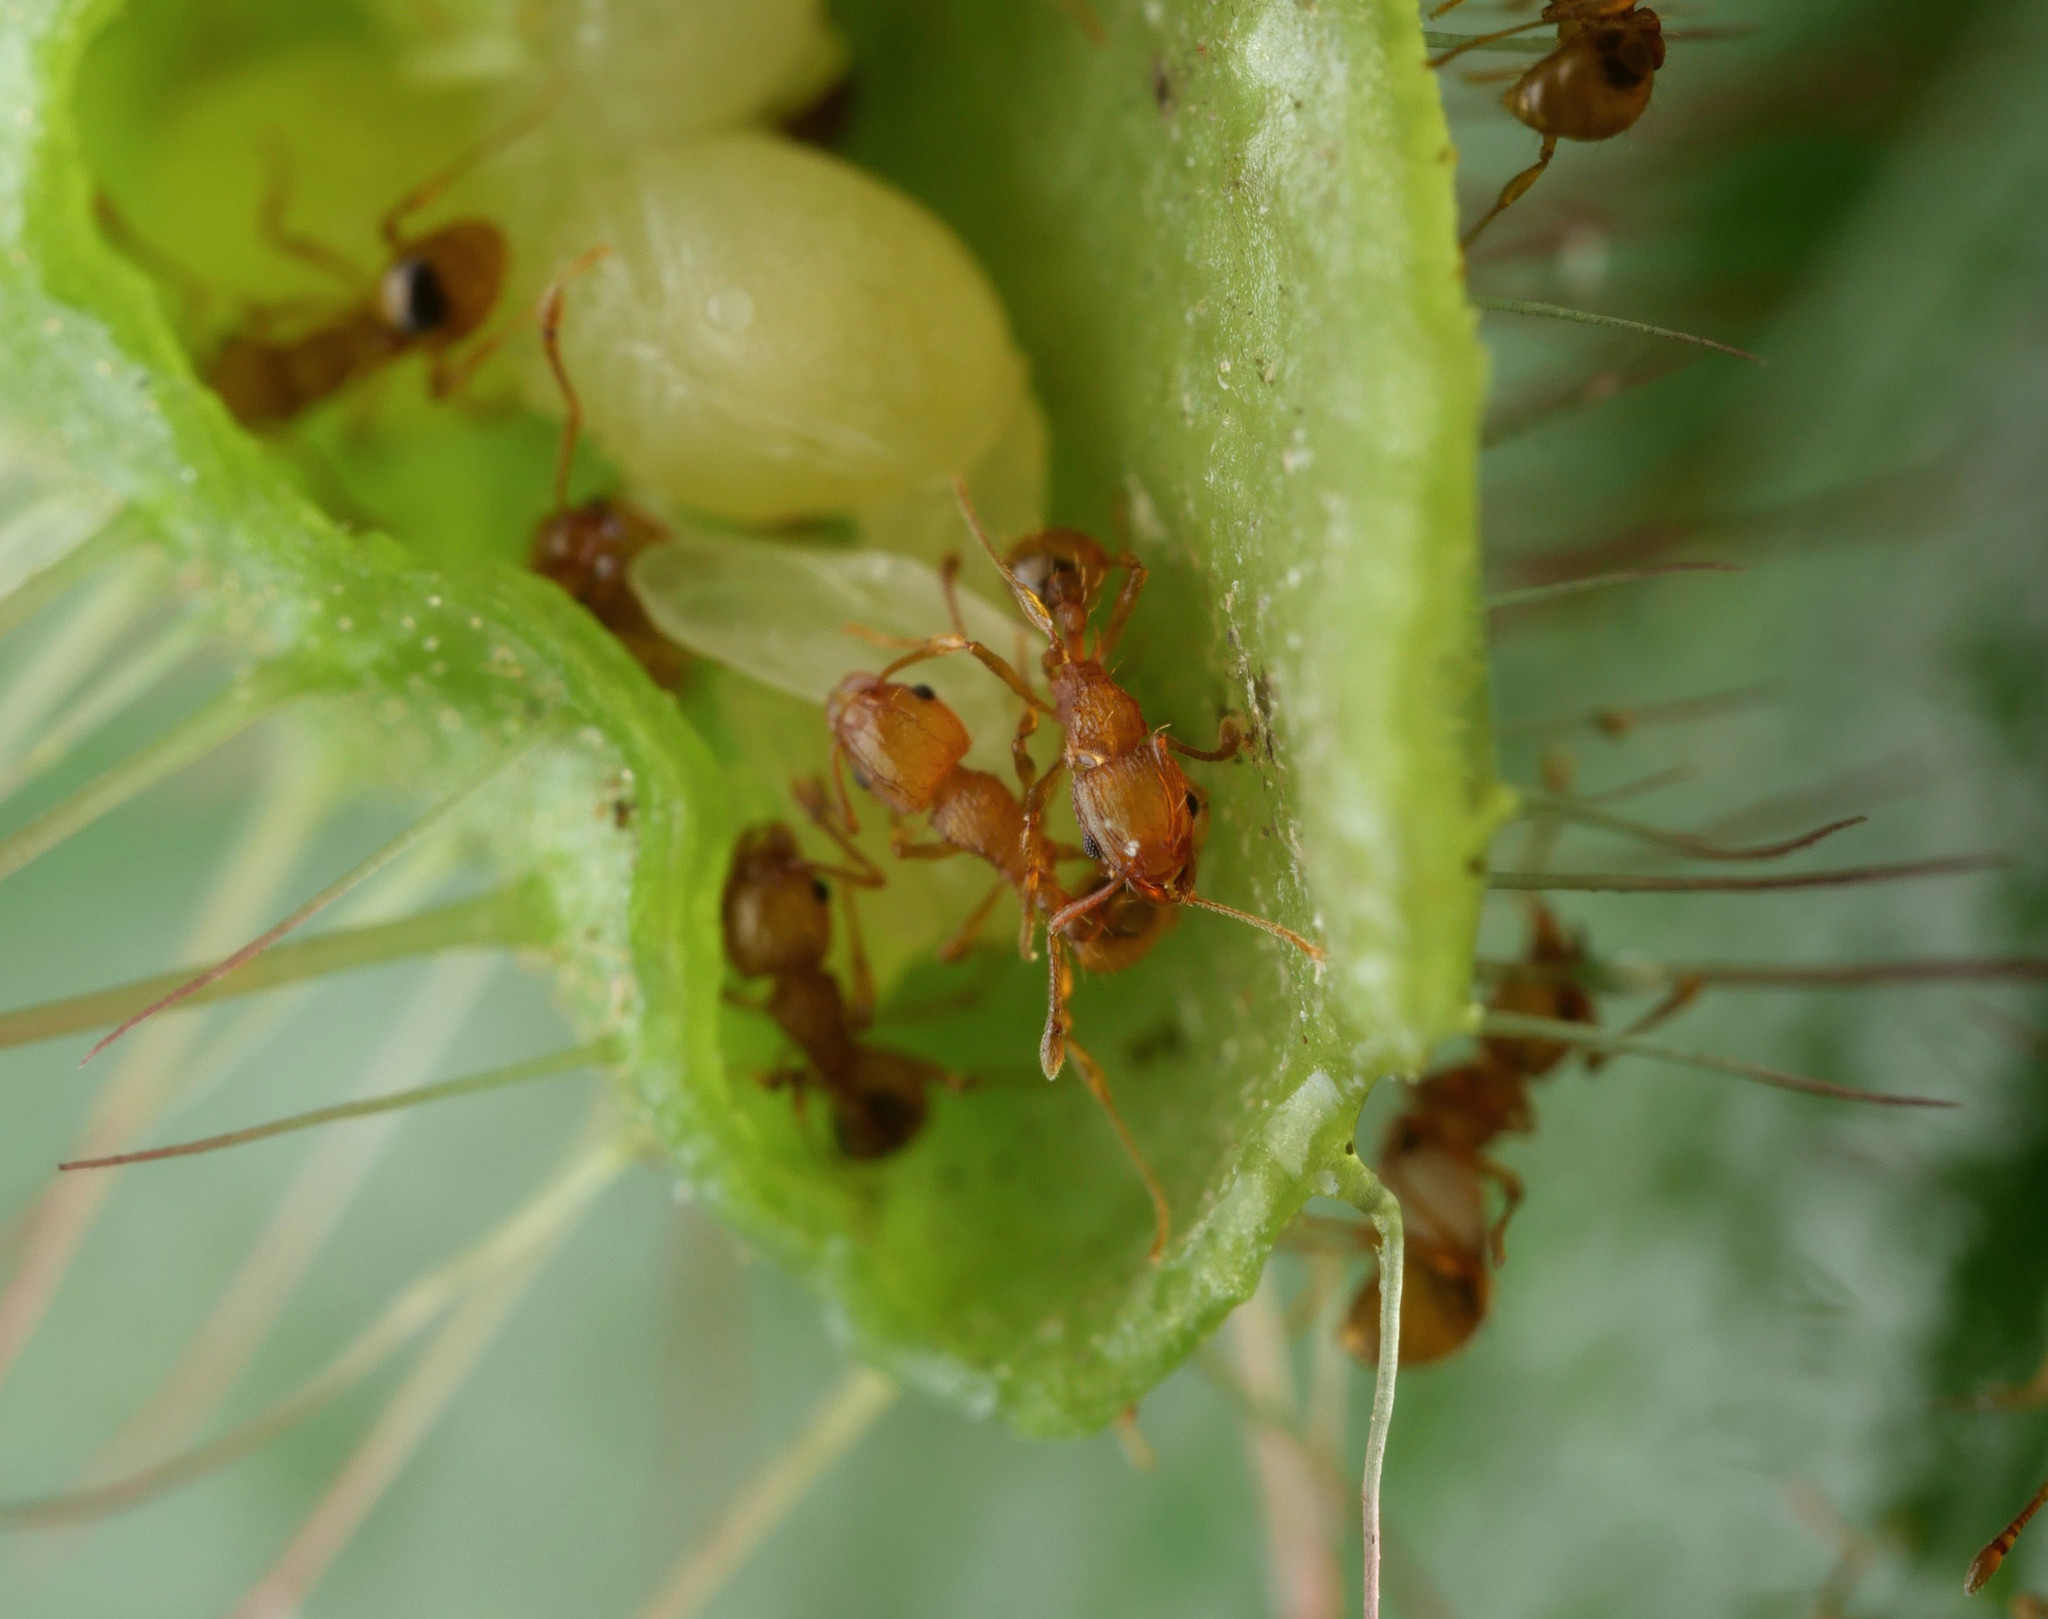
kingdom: Animalia
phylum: Arthropoda
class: Insecta
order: Hymenoptera
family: Formicidae
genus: Wasmannia
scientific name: Wasmannia auropunctata
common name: Little fire ant
